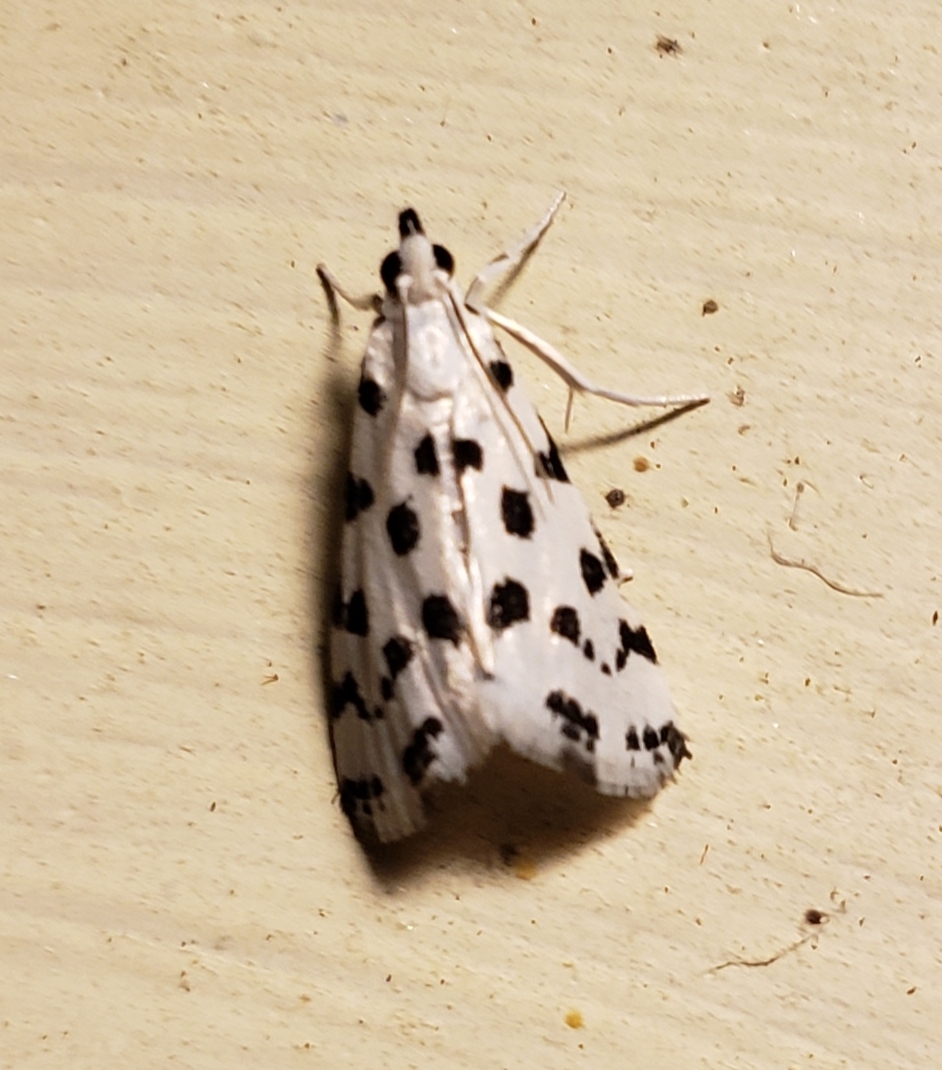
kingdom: Animalia
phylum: Arthropoda
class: Insecta
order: Lepidoptera
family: Crambidae
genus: Eustixia
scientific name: Eustixia pupula
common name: American cabbage pearl
